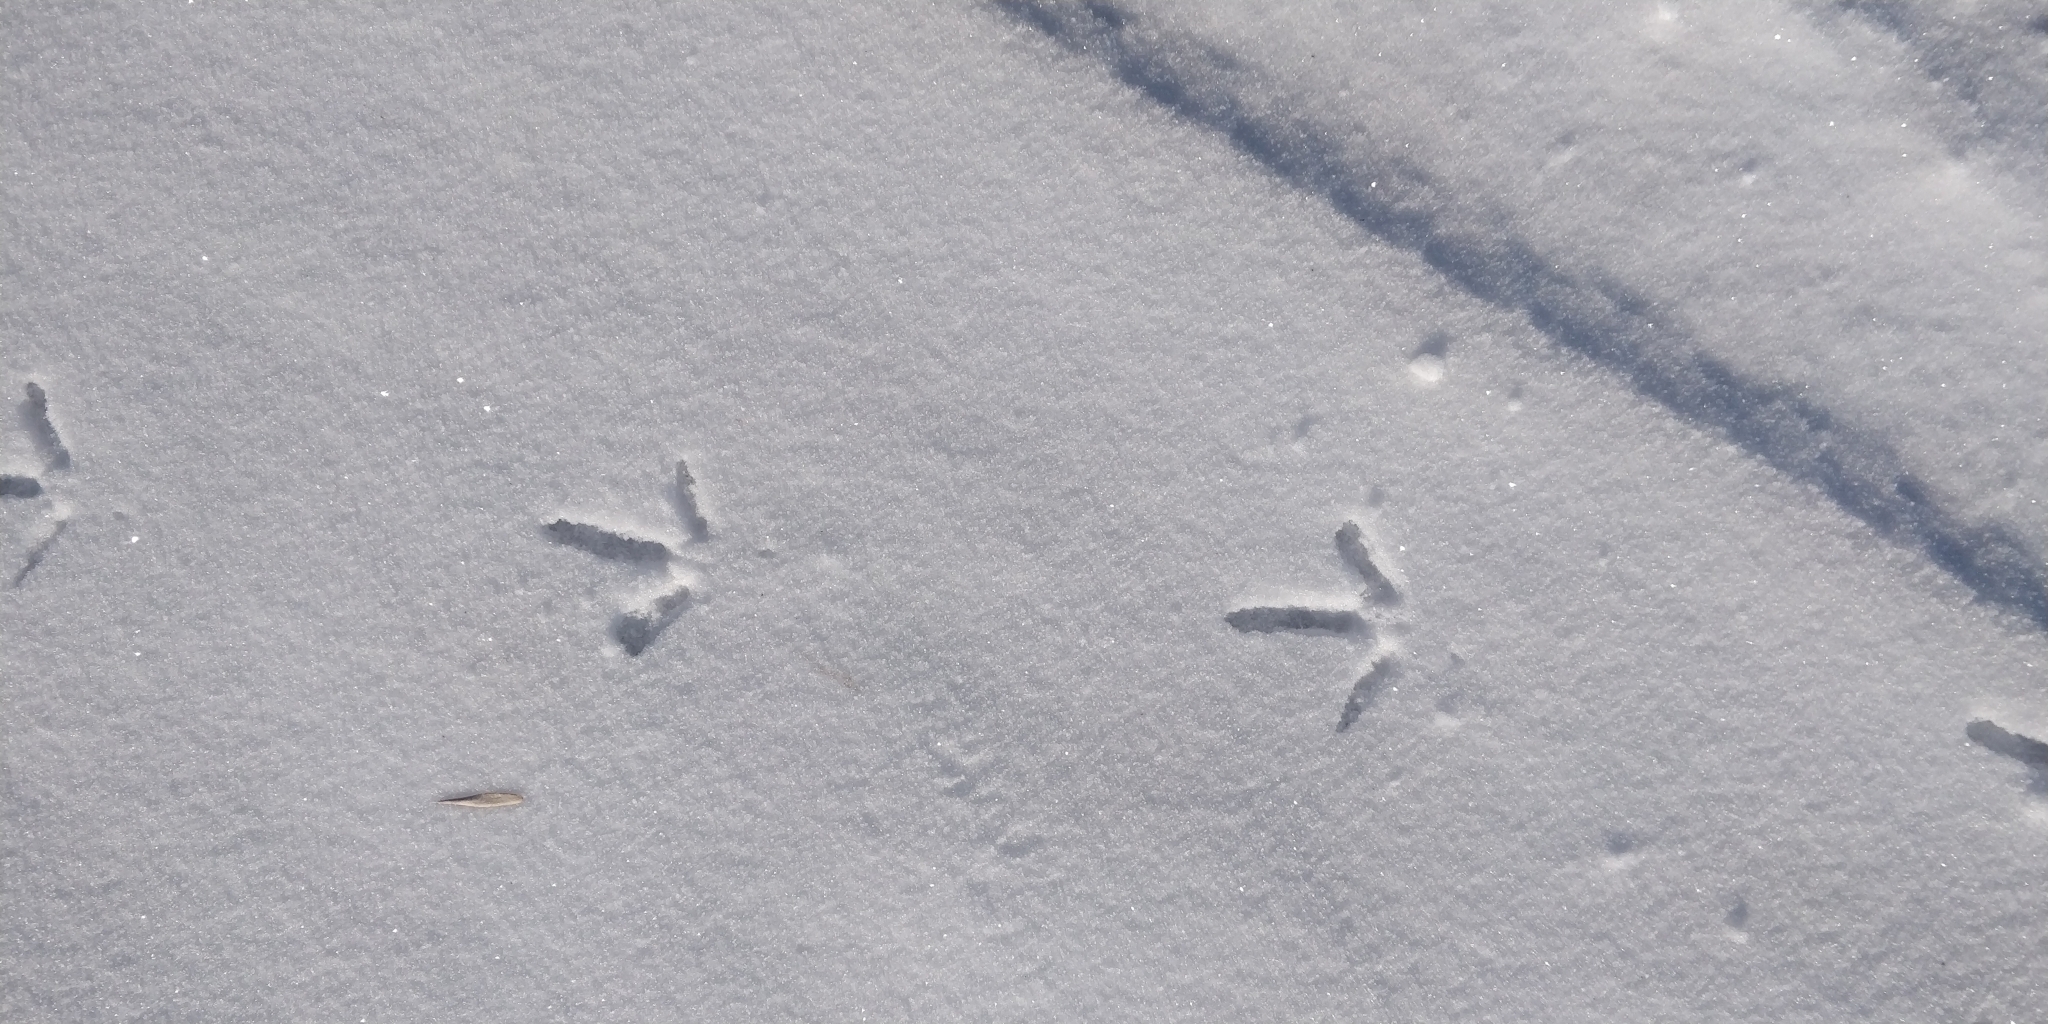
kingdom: Animalia
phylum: Chordata
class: Aves
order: Galliformes
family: Phasianidae
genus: Phasianus
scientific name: Phasianus colchicus
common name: Common pheasant
